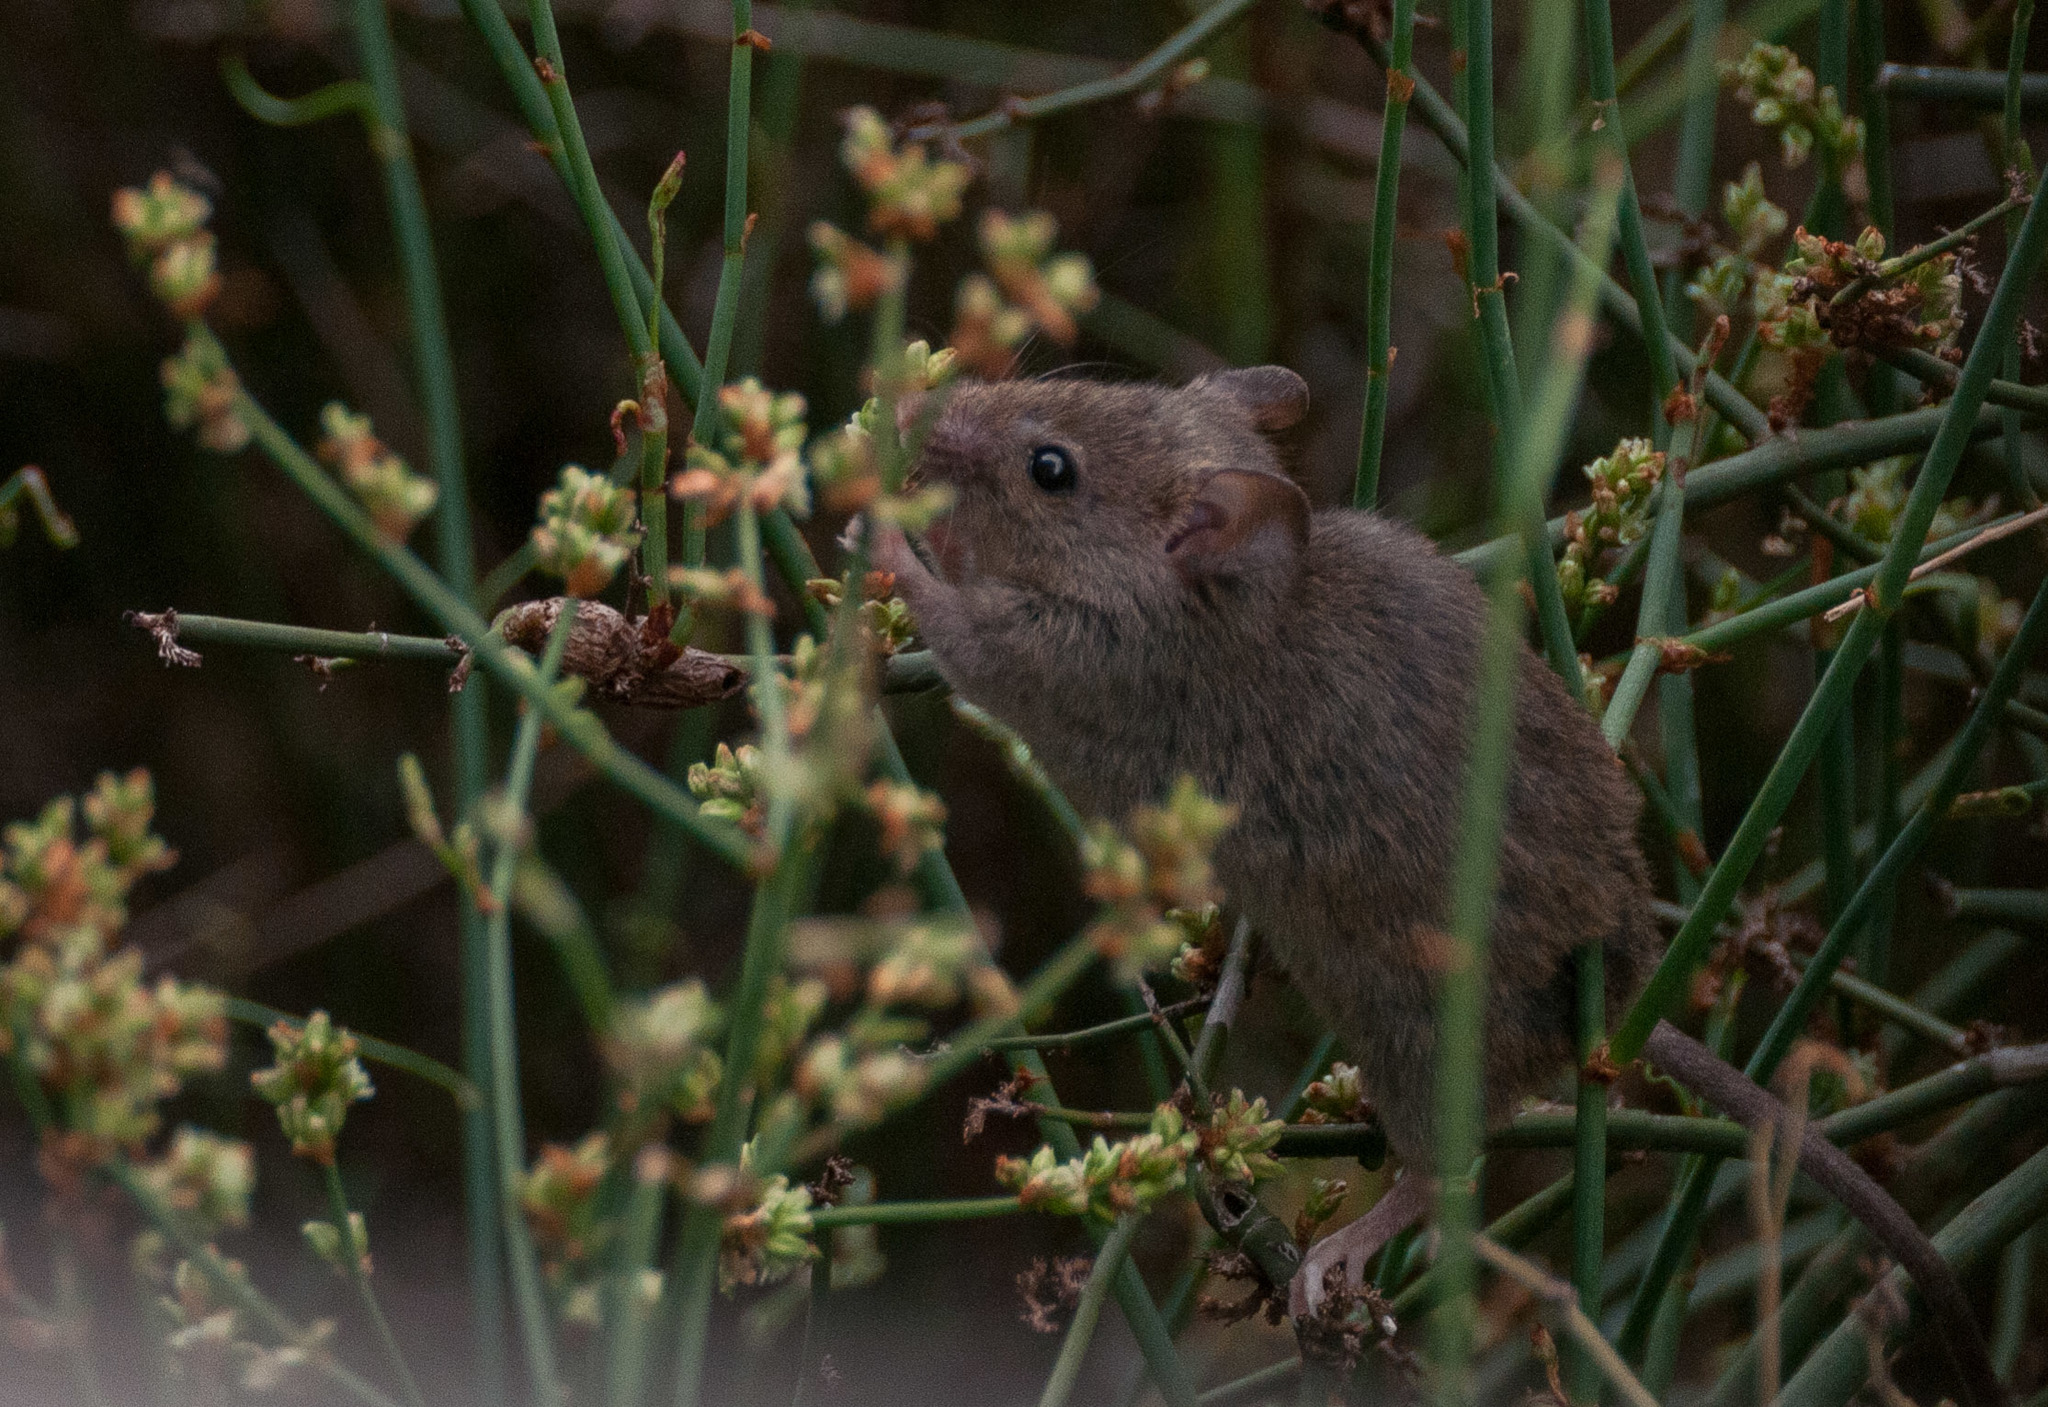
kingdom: Animalia
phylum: Chordata
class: Mammalia
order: Rodentia
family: Muridae
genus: Mus
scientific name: Mus musculus
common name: House mouse
